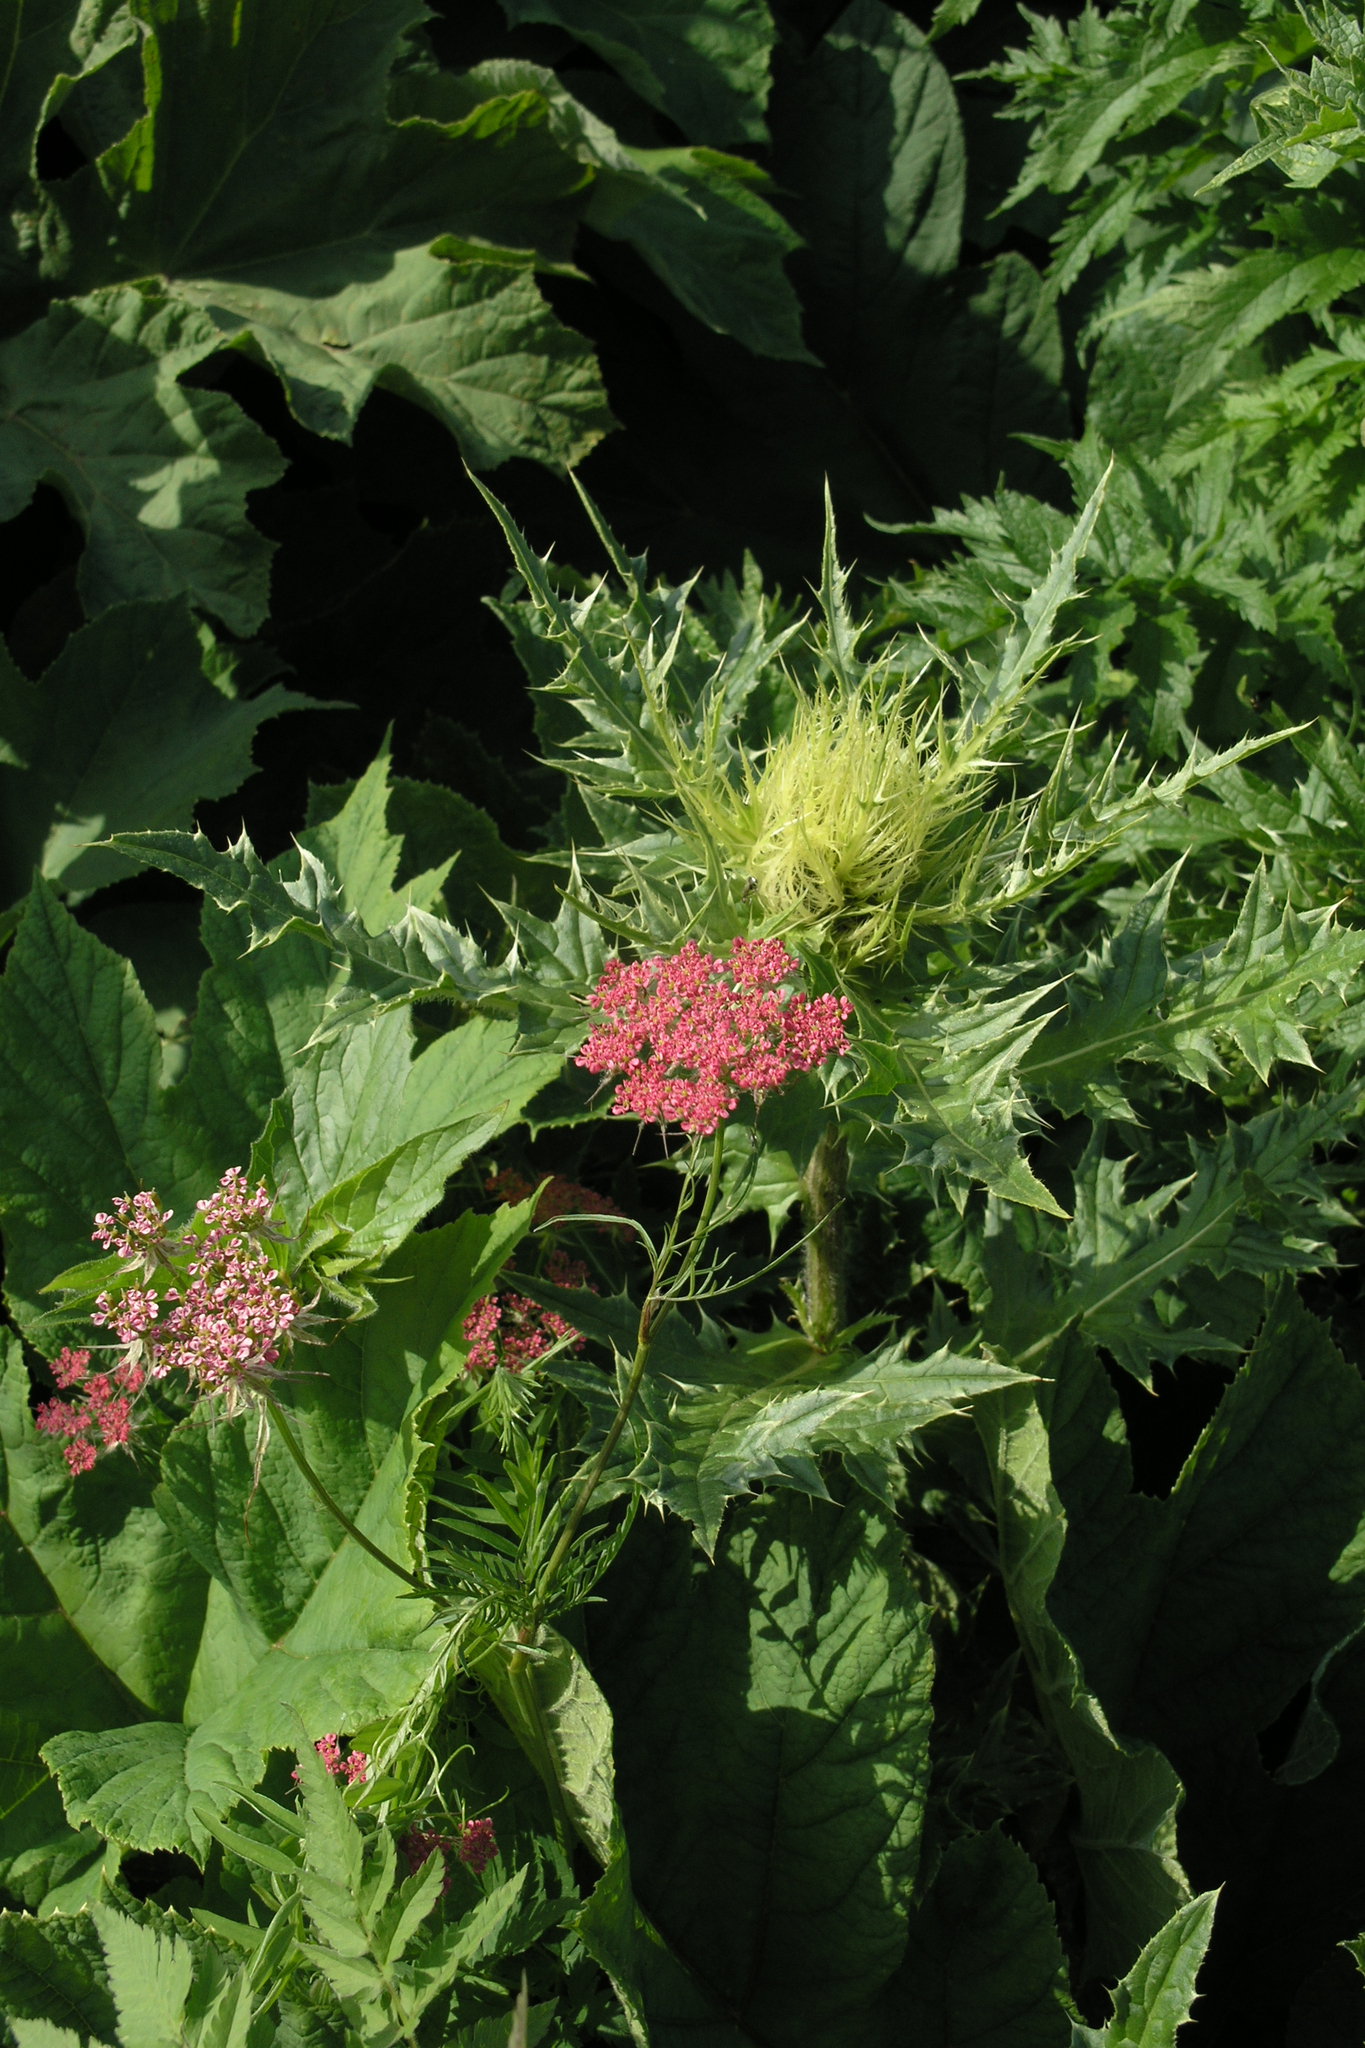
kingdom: Plantae
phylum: Tracheophyta
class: Magnoliopsida
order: Asterales
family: Asteraceae
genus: Cirsium
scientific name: Cirsium obvallatum
